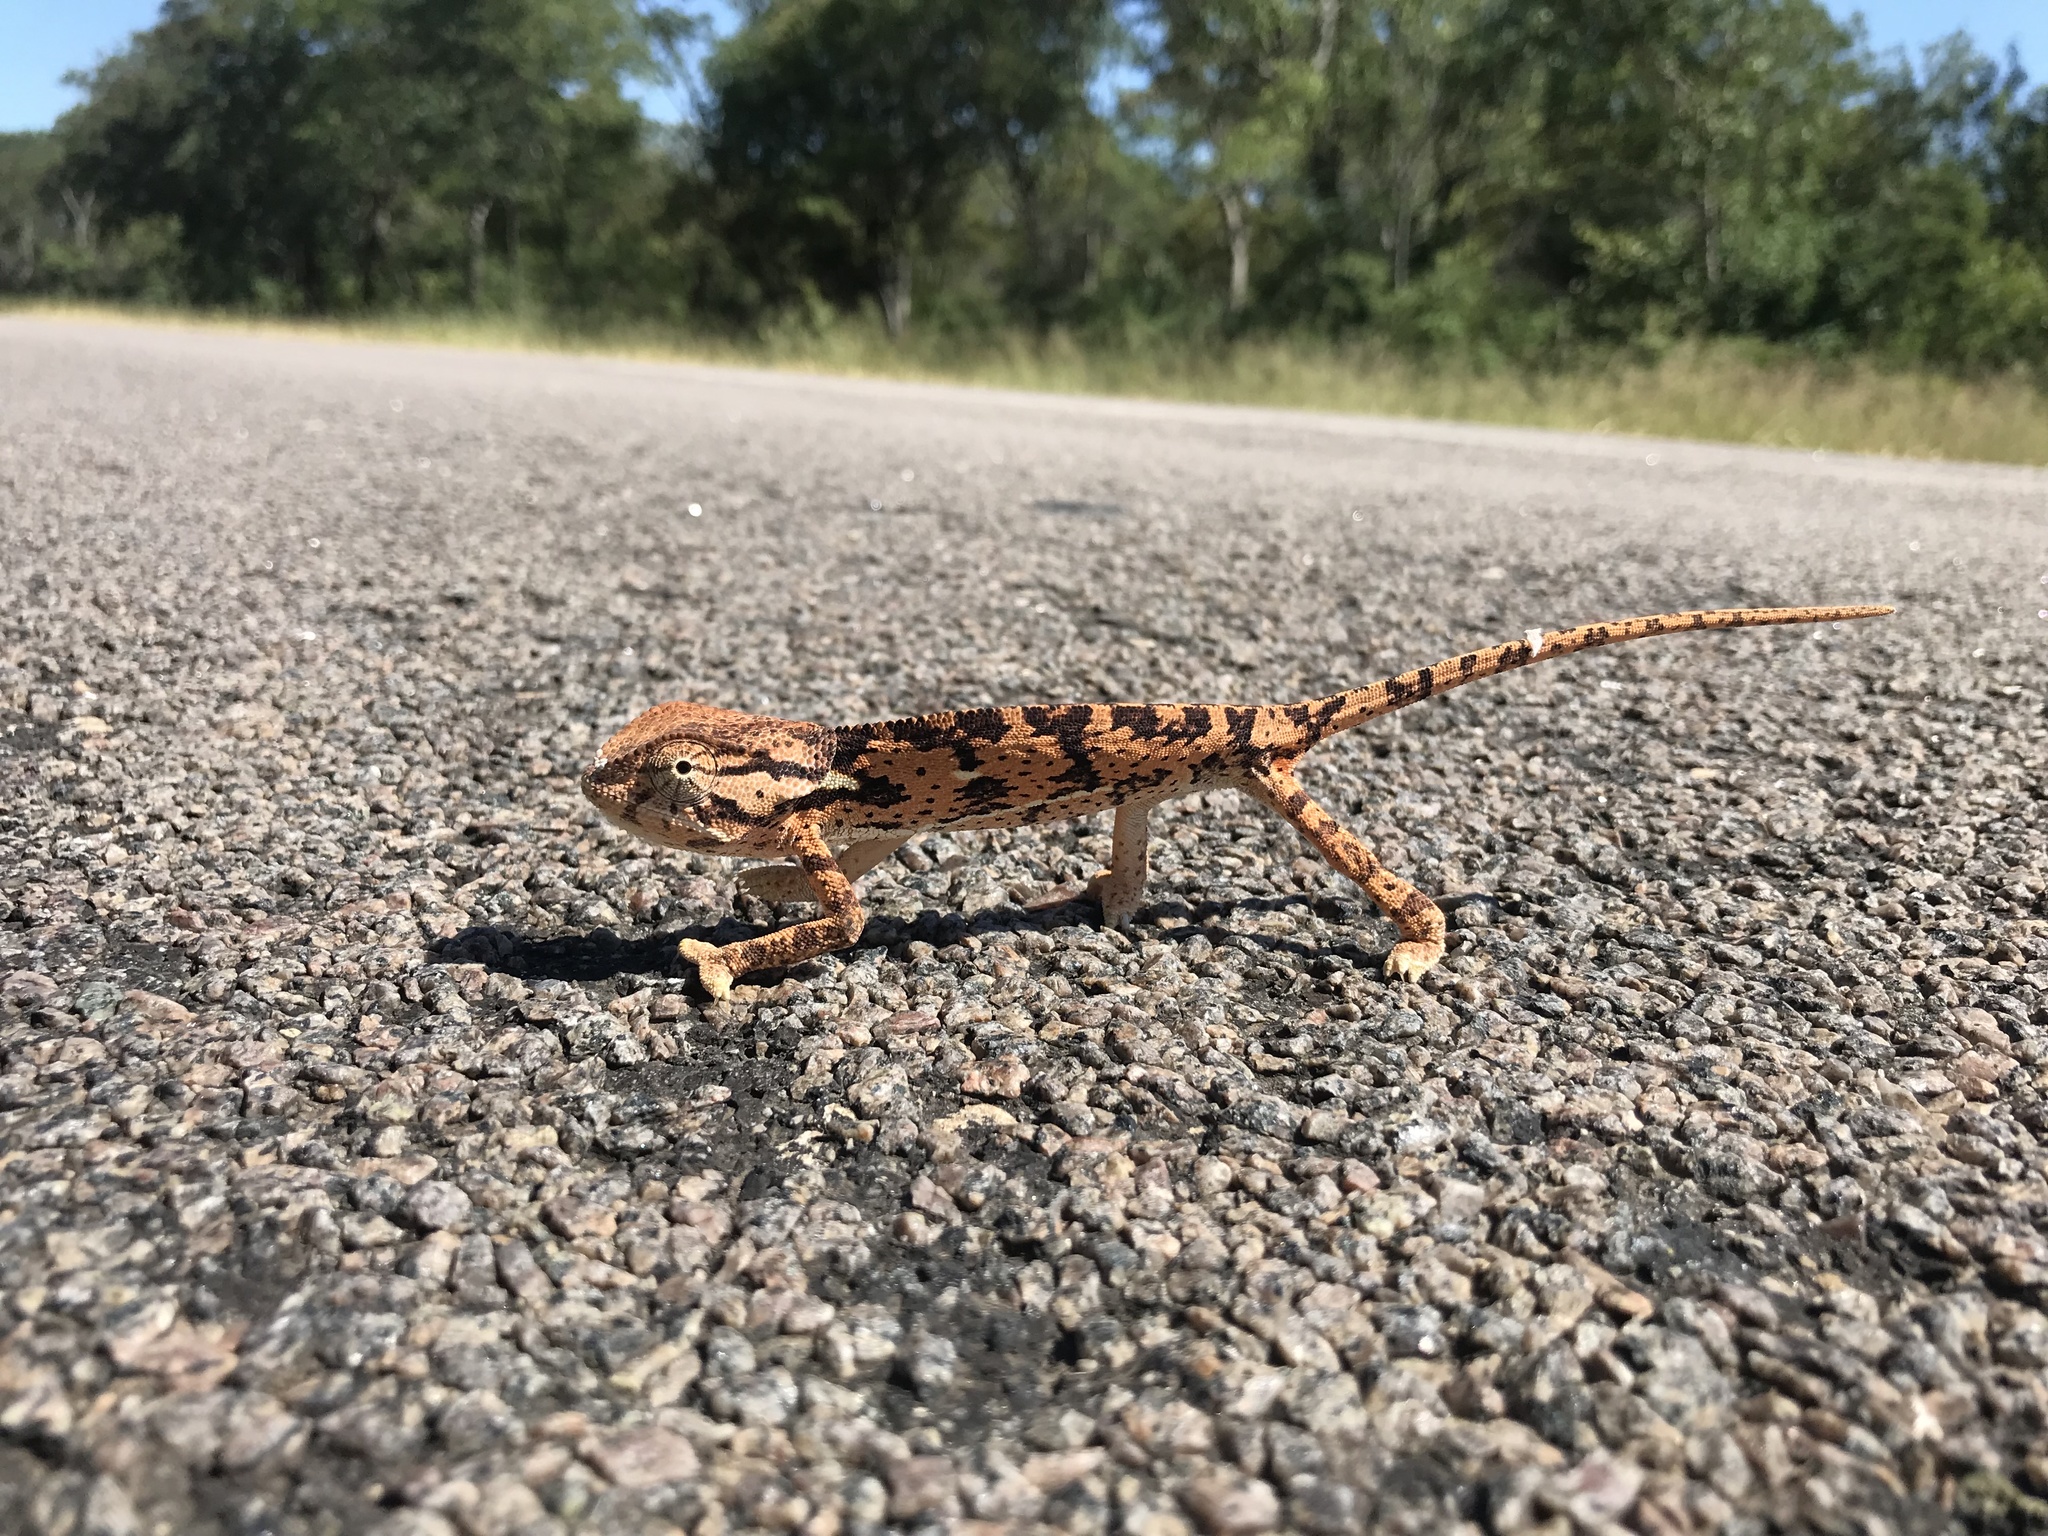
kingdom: Animalia
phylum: Chordata
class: Squamata
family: Chamaeleonidae
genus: Chamaeleo
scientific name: Chamaeleo dilepis
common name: Flapneck chameleon
